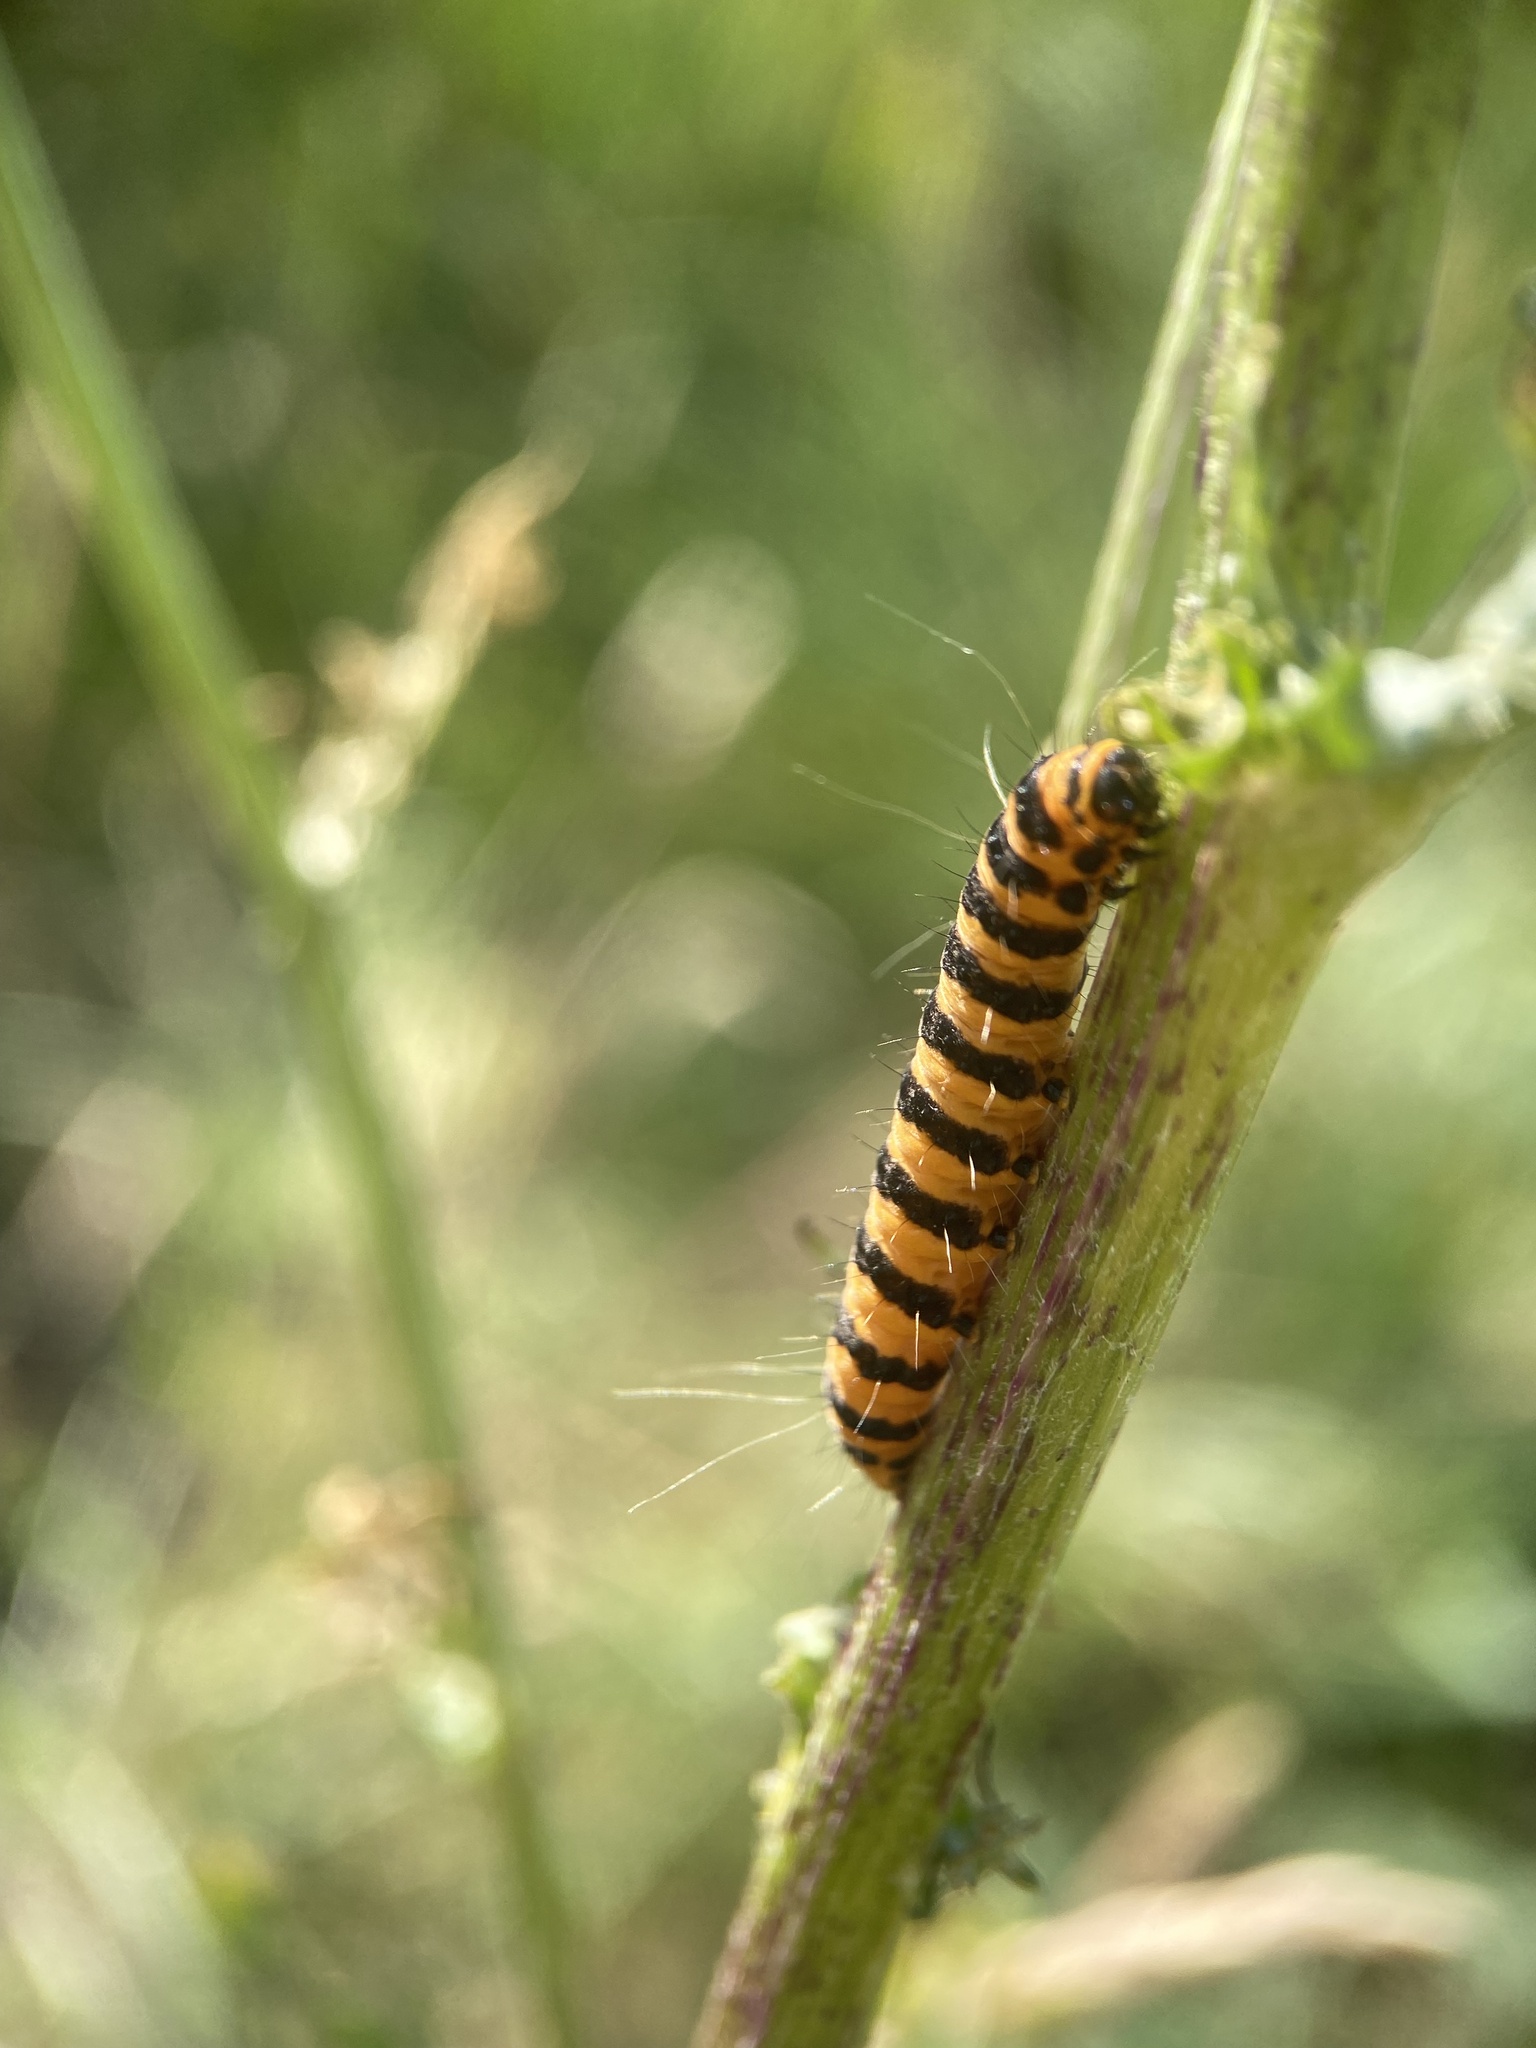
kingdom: Animalia
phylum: Arthropoda
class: Insecta
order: Lepidoptera
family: Erebidae
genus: Tyria
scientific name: Tyria jacobaeae
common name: Cinnabar
